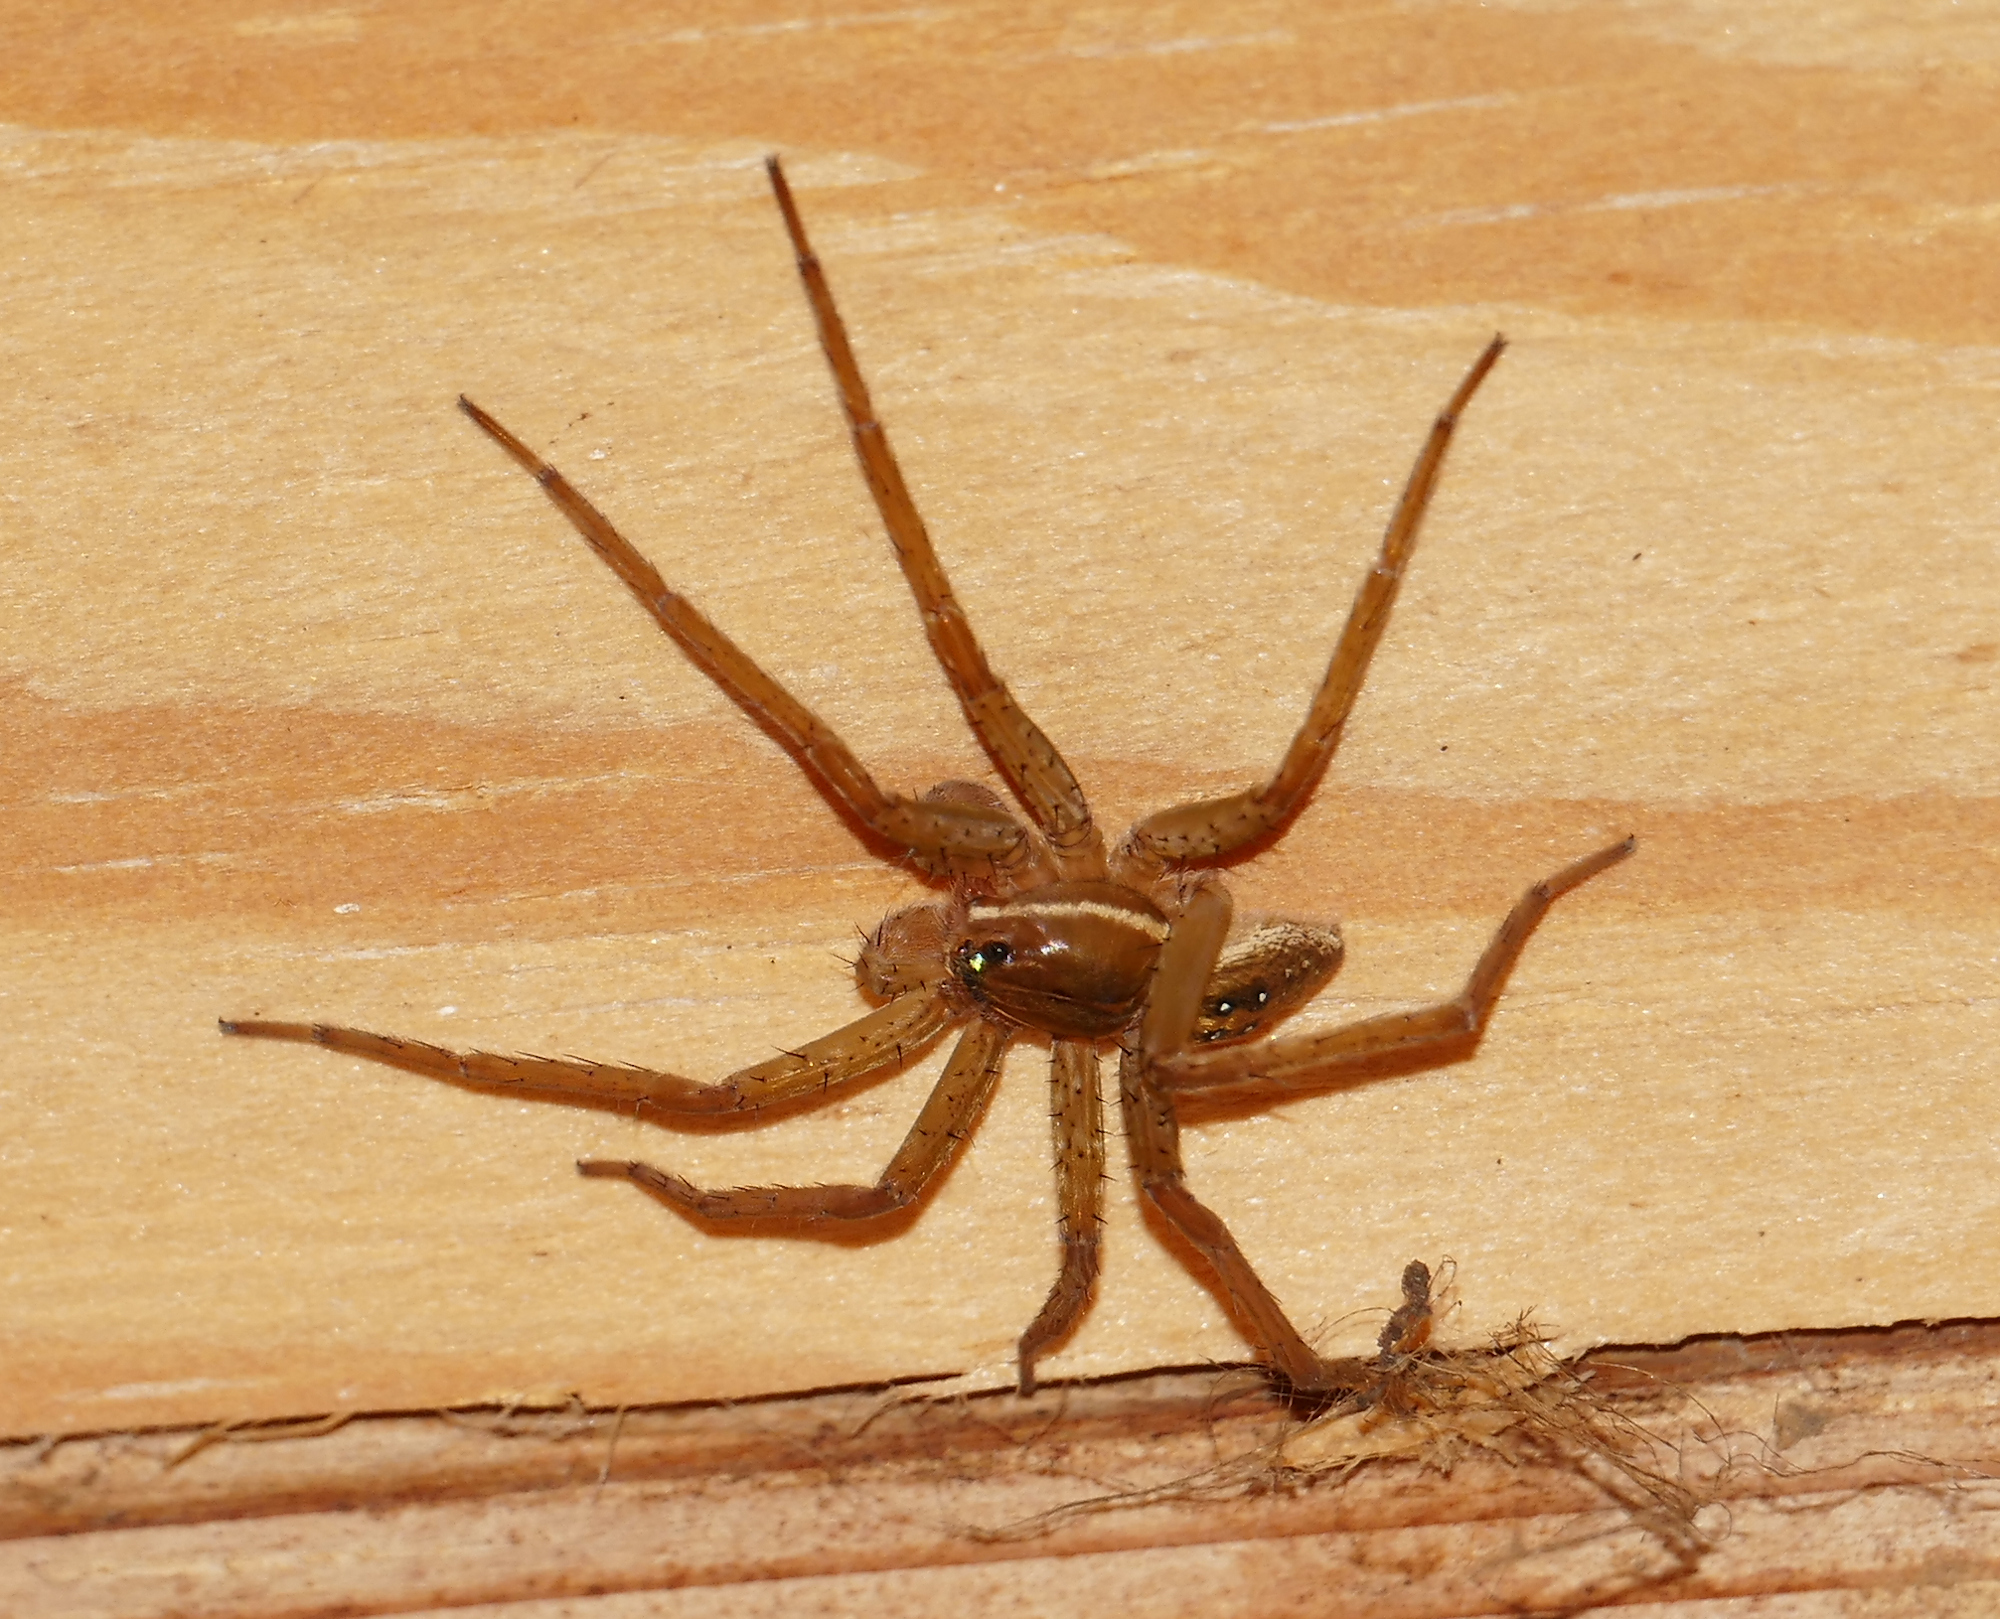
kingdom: Animalia
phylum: Arthropoda
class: Arachnida
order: Araneae
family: Pisauridae
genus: Dolomedes
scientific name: Dolomedes triton
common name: Six-spotted fishing spider
